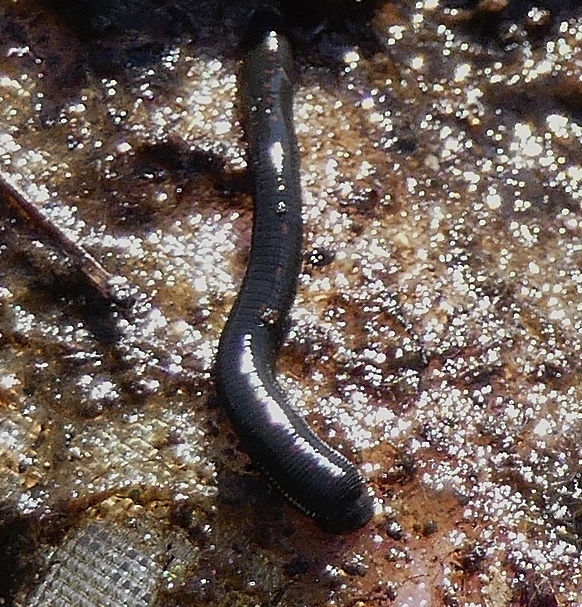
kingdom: Animalia
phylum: Annelida
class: Clitellata
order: Arhynchobdellida
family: Hirudinidae
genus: Macrobdella
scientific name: Macrobdella decora
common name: North american leech
